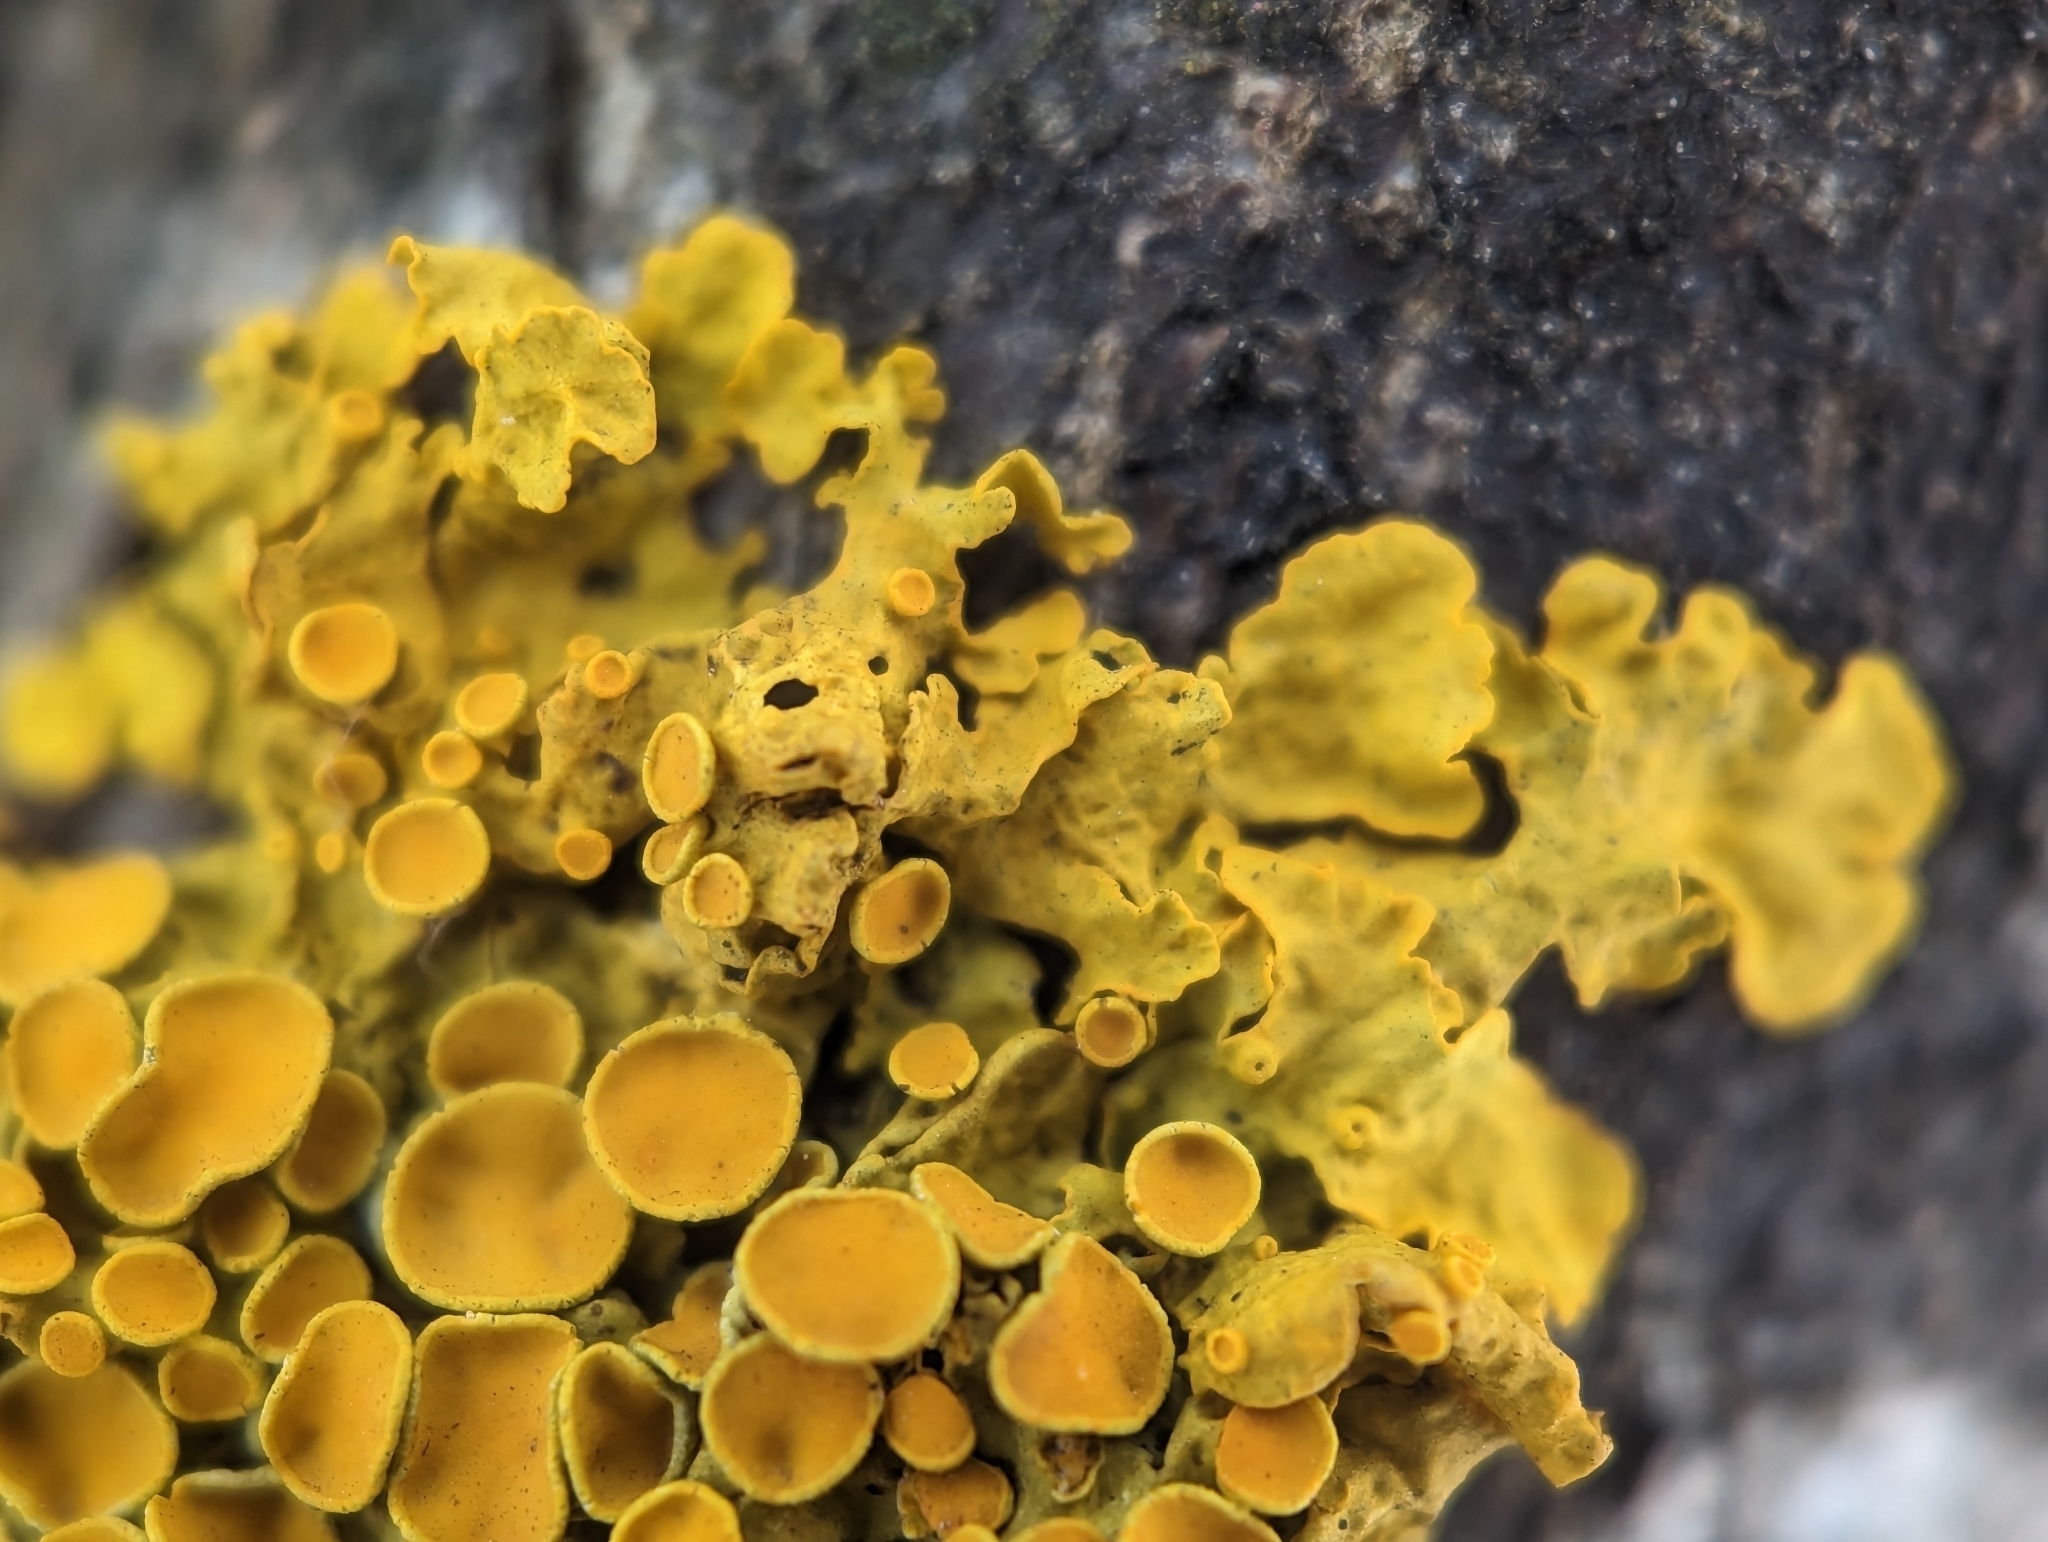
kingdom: Fungi
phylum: Ascomycota
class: Lecanoromycetes
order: Teloschistales
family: Teloschistaceae
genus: Xanthoria
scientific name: Xanthoria parietina
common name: Common orange lichen
